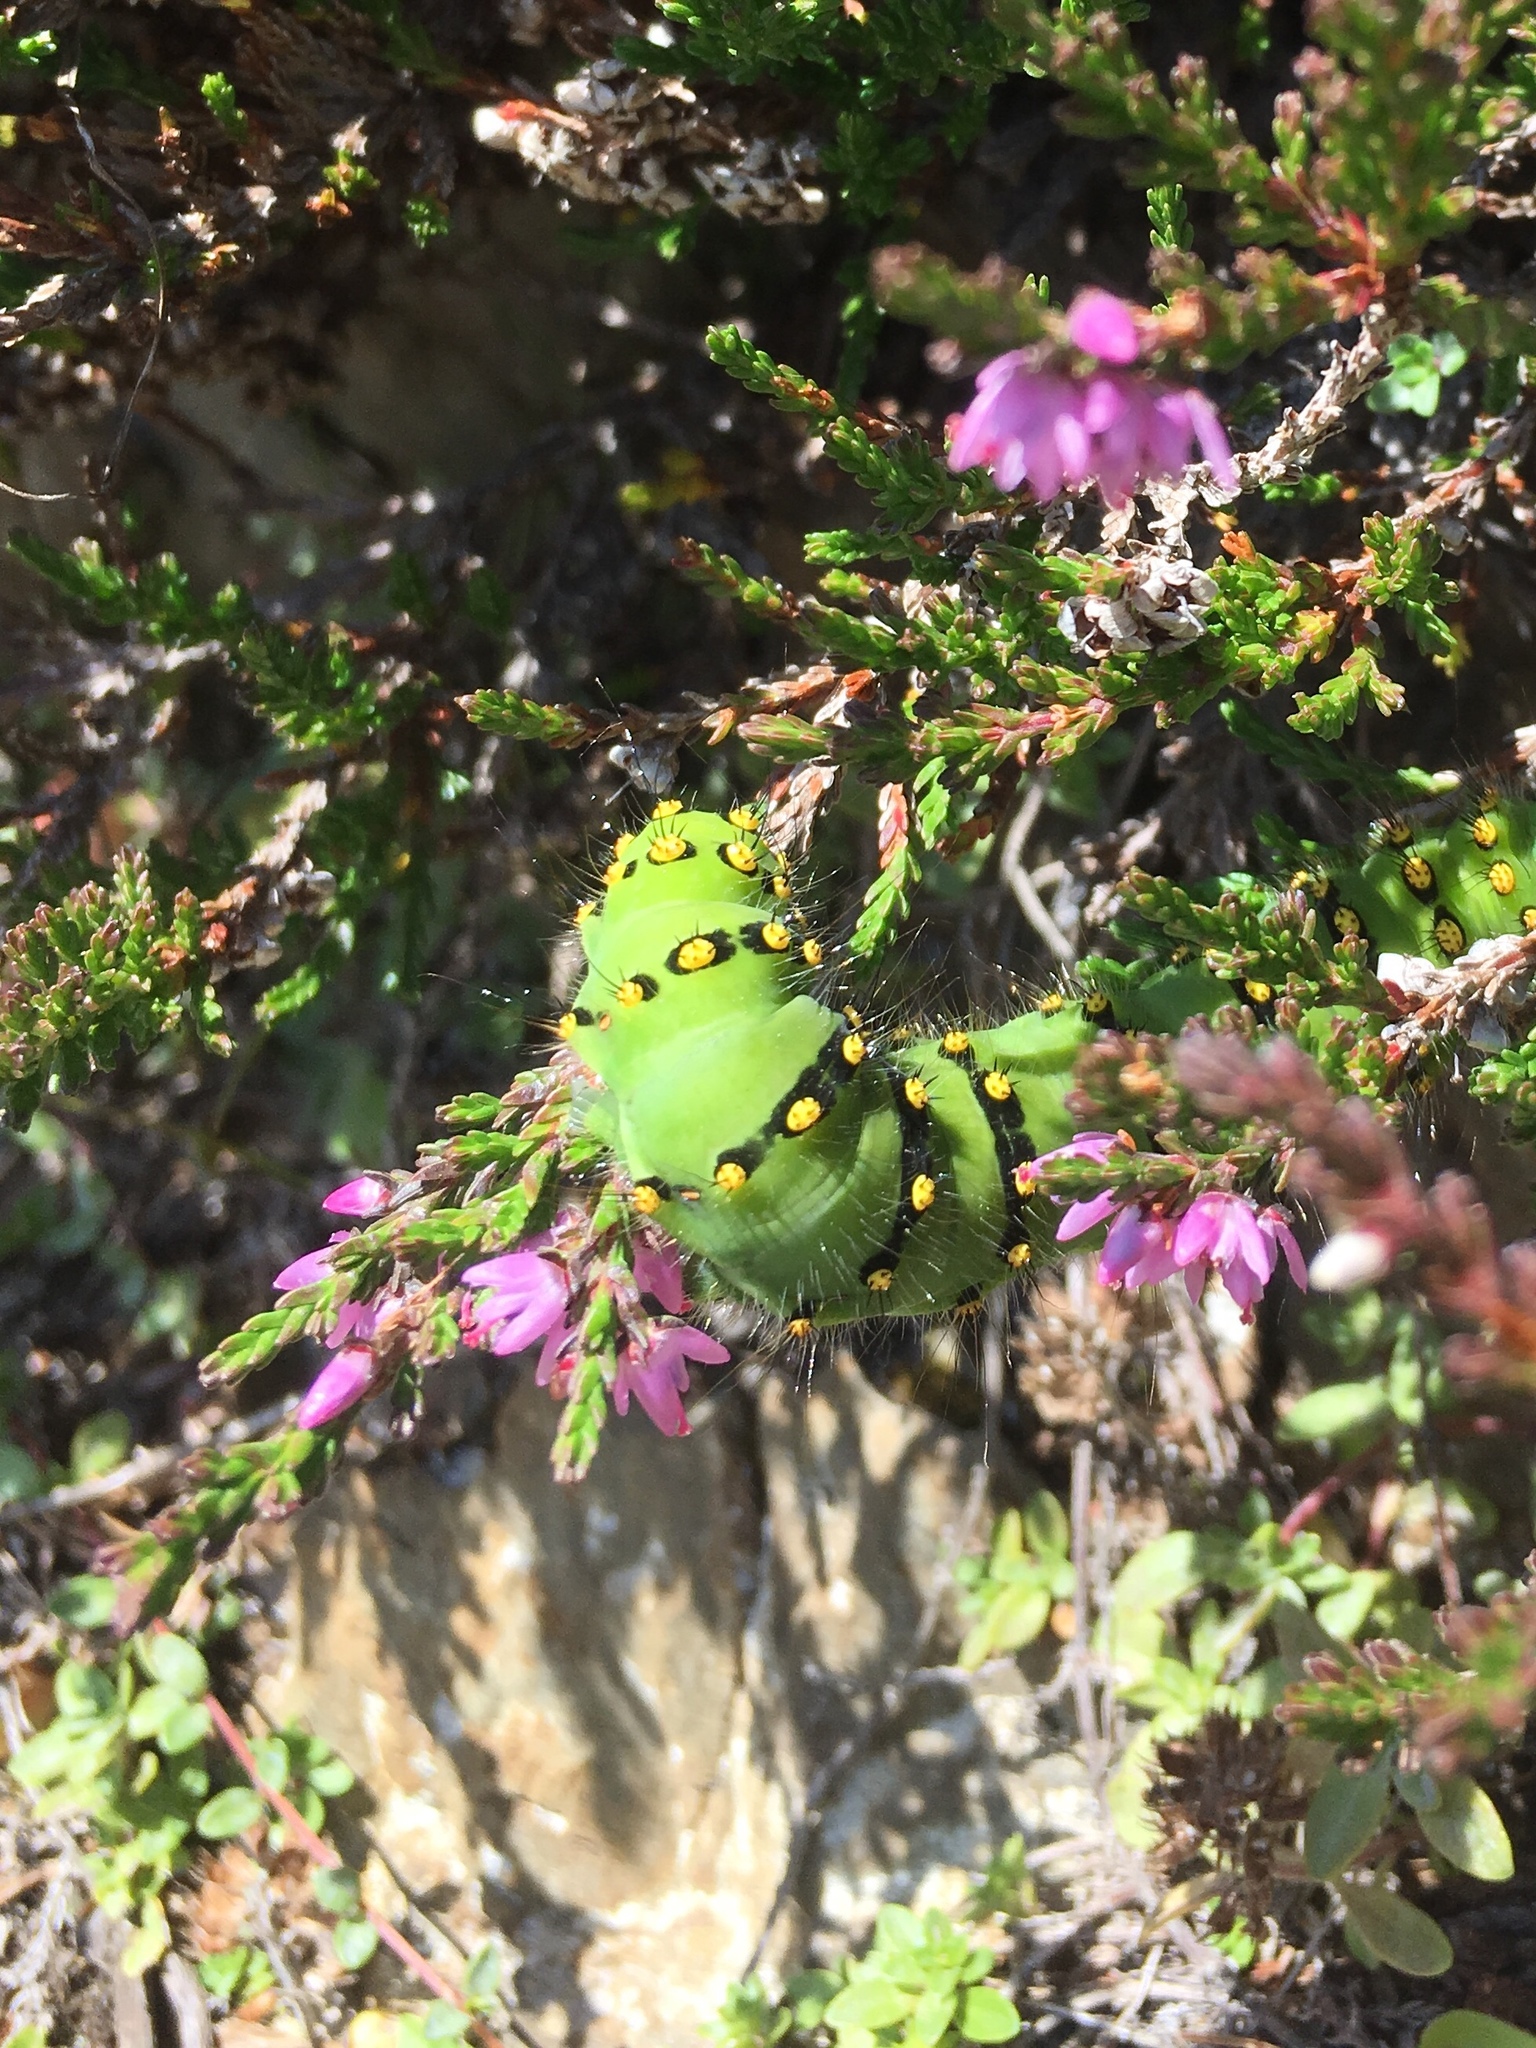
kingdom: Animalia
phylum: Arthropoda
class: Insecta
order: Lepidoptera
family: Saturniidae
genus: Saturnia
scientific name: Saturnia pavonia
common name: Emperor moth
